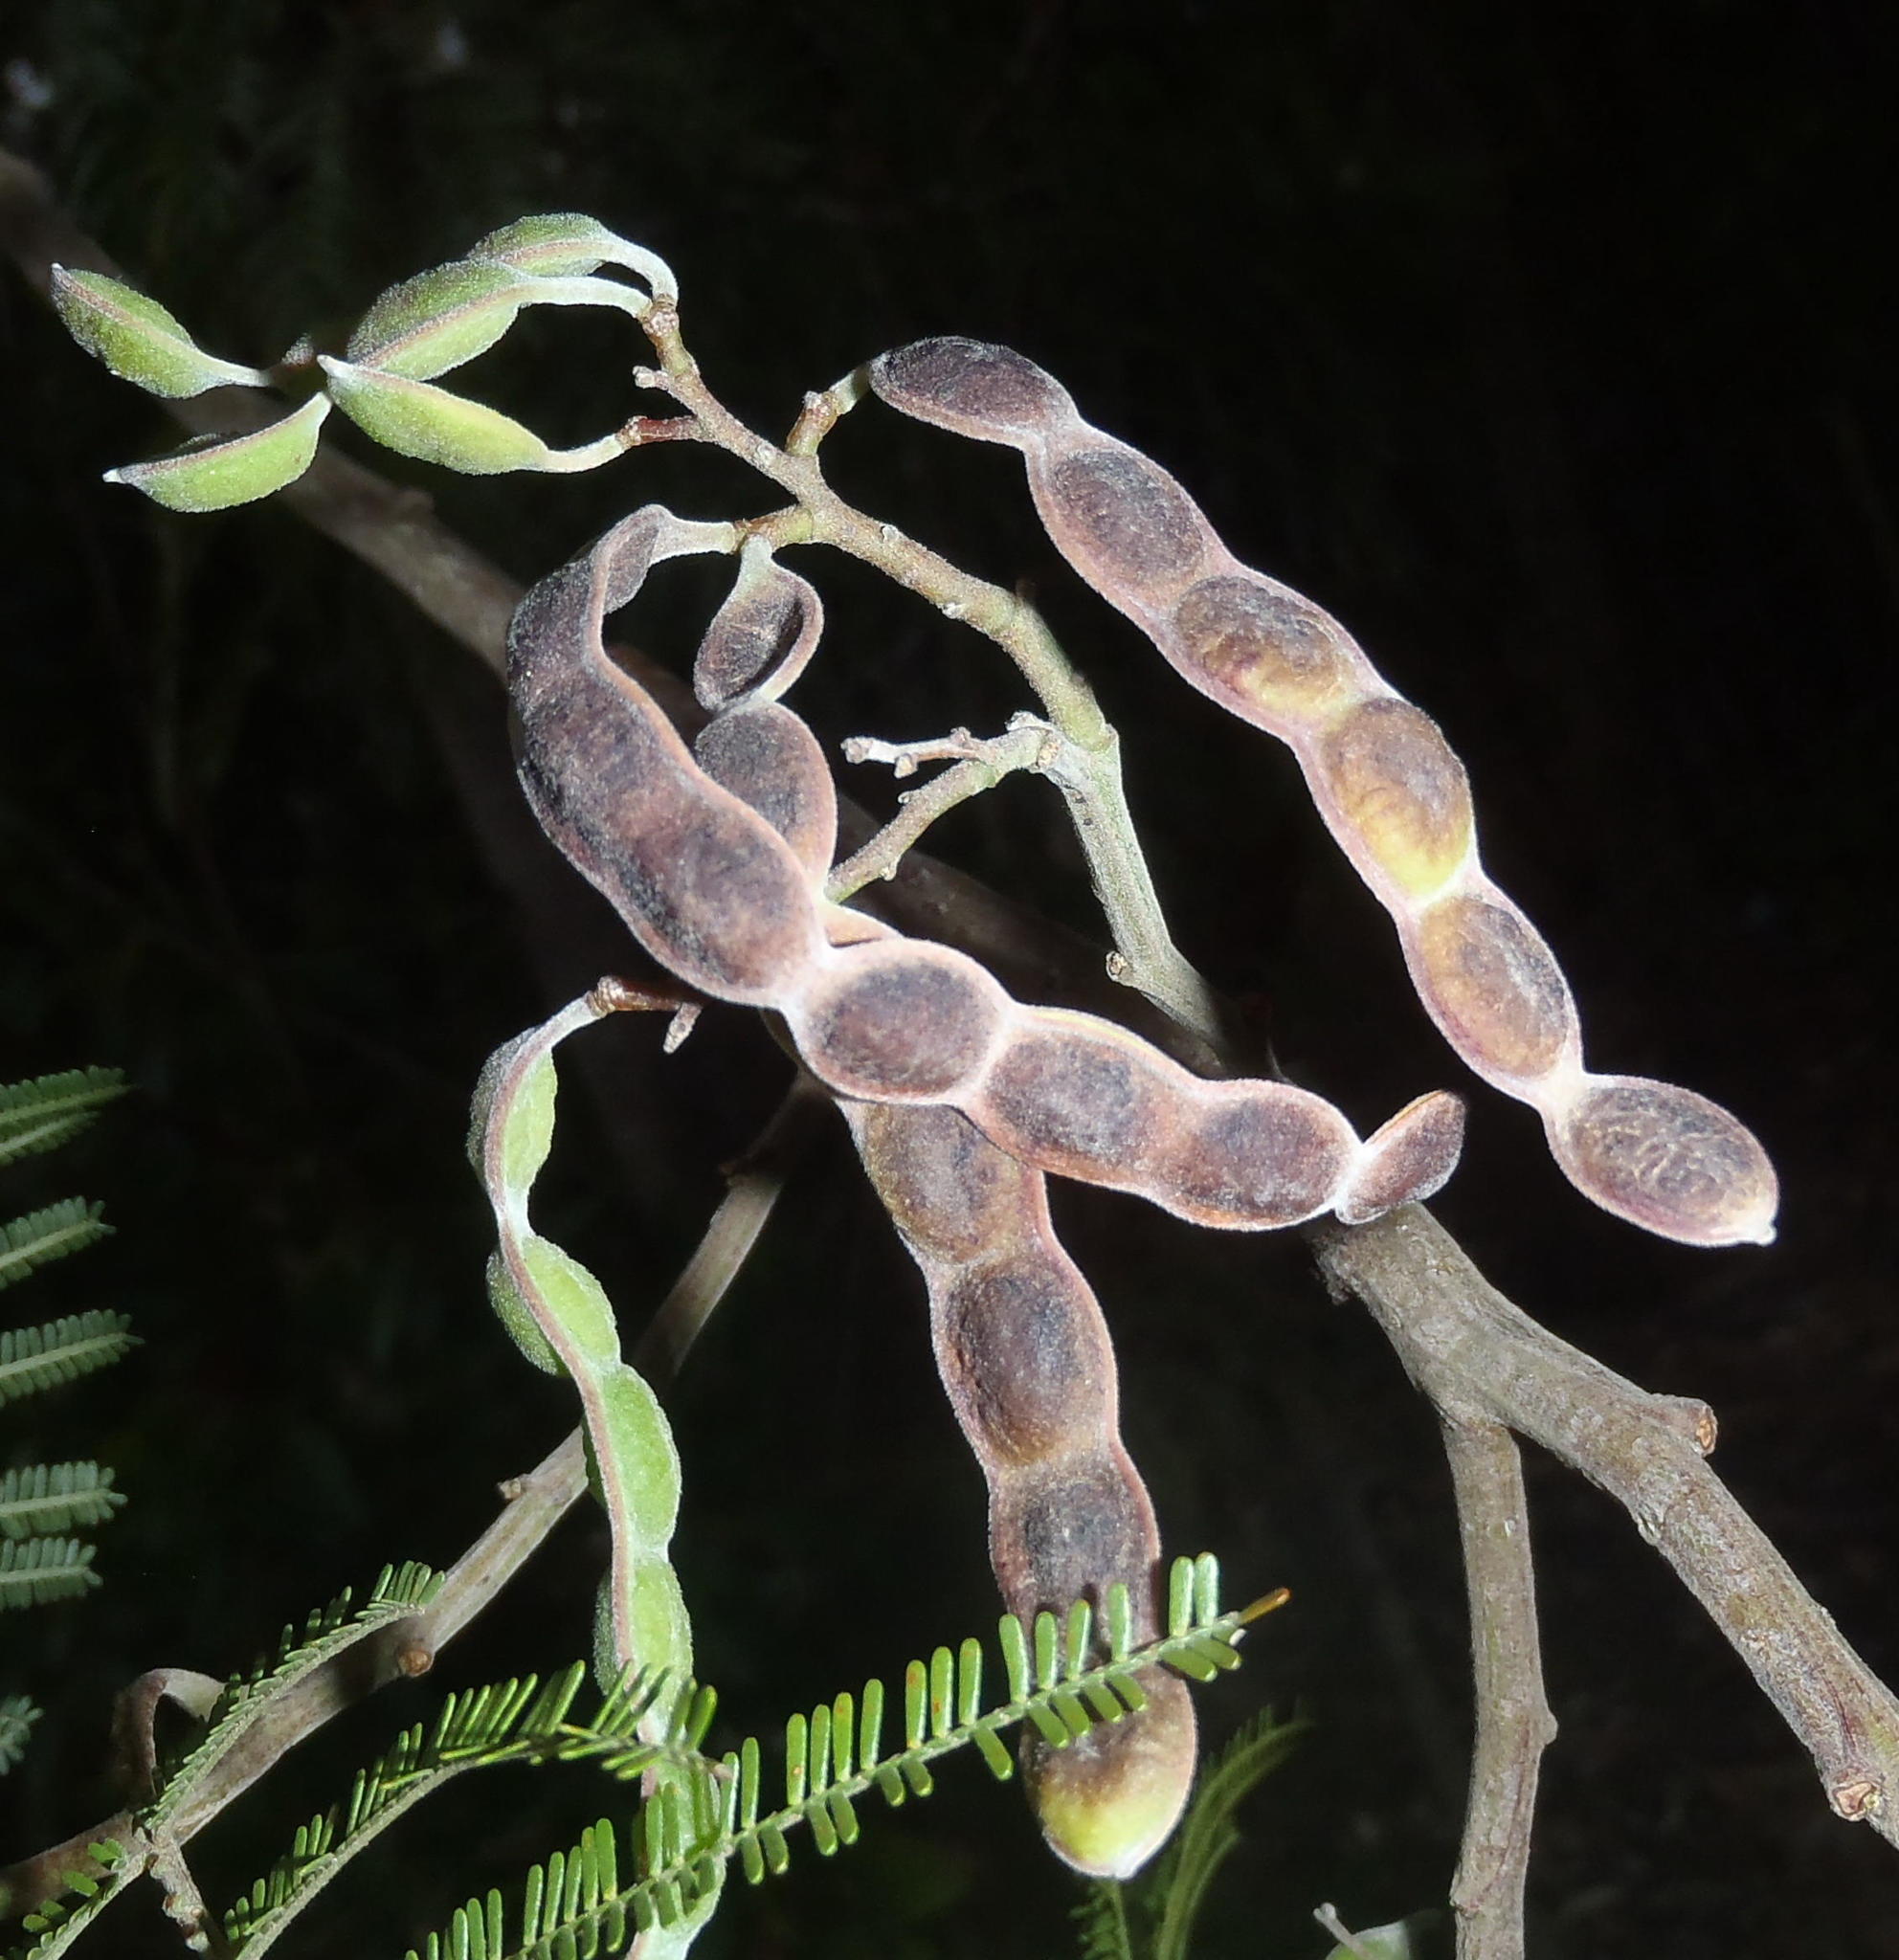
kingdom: Plantae
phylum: Tracheophyta
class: Magnoliopsida
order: Fabales
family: Fabaceae
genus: Acacia
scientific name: Acacia mearnsii
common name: Black wattle
